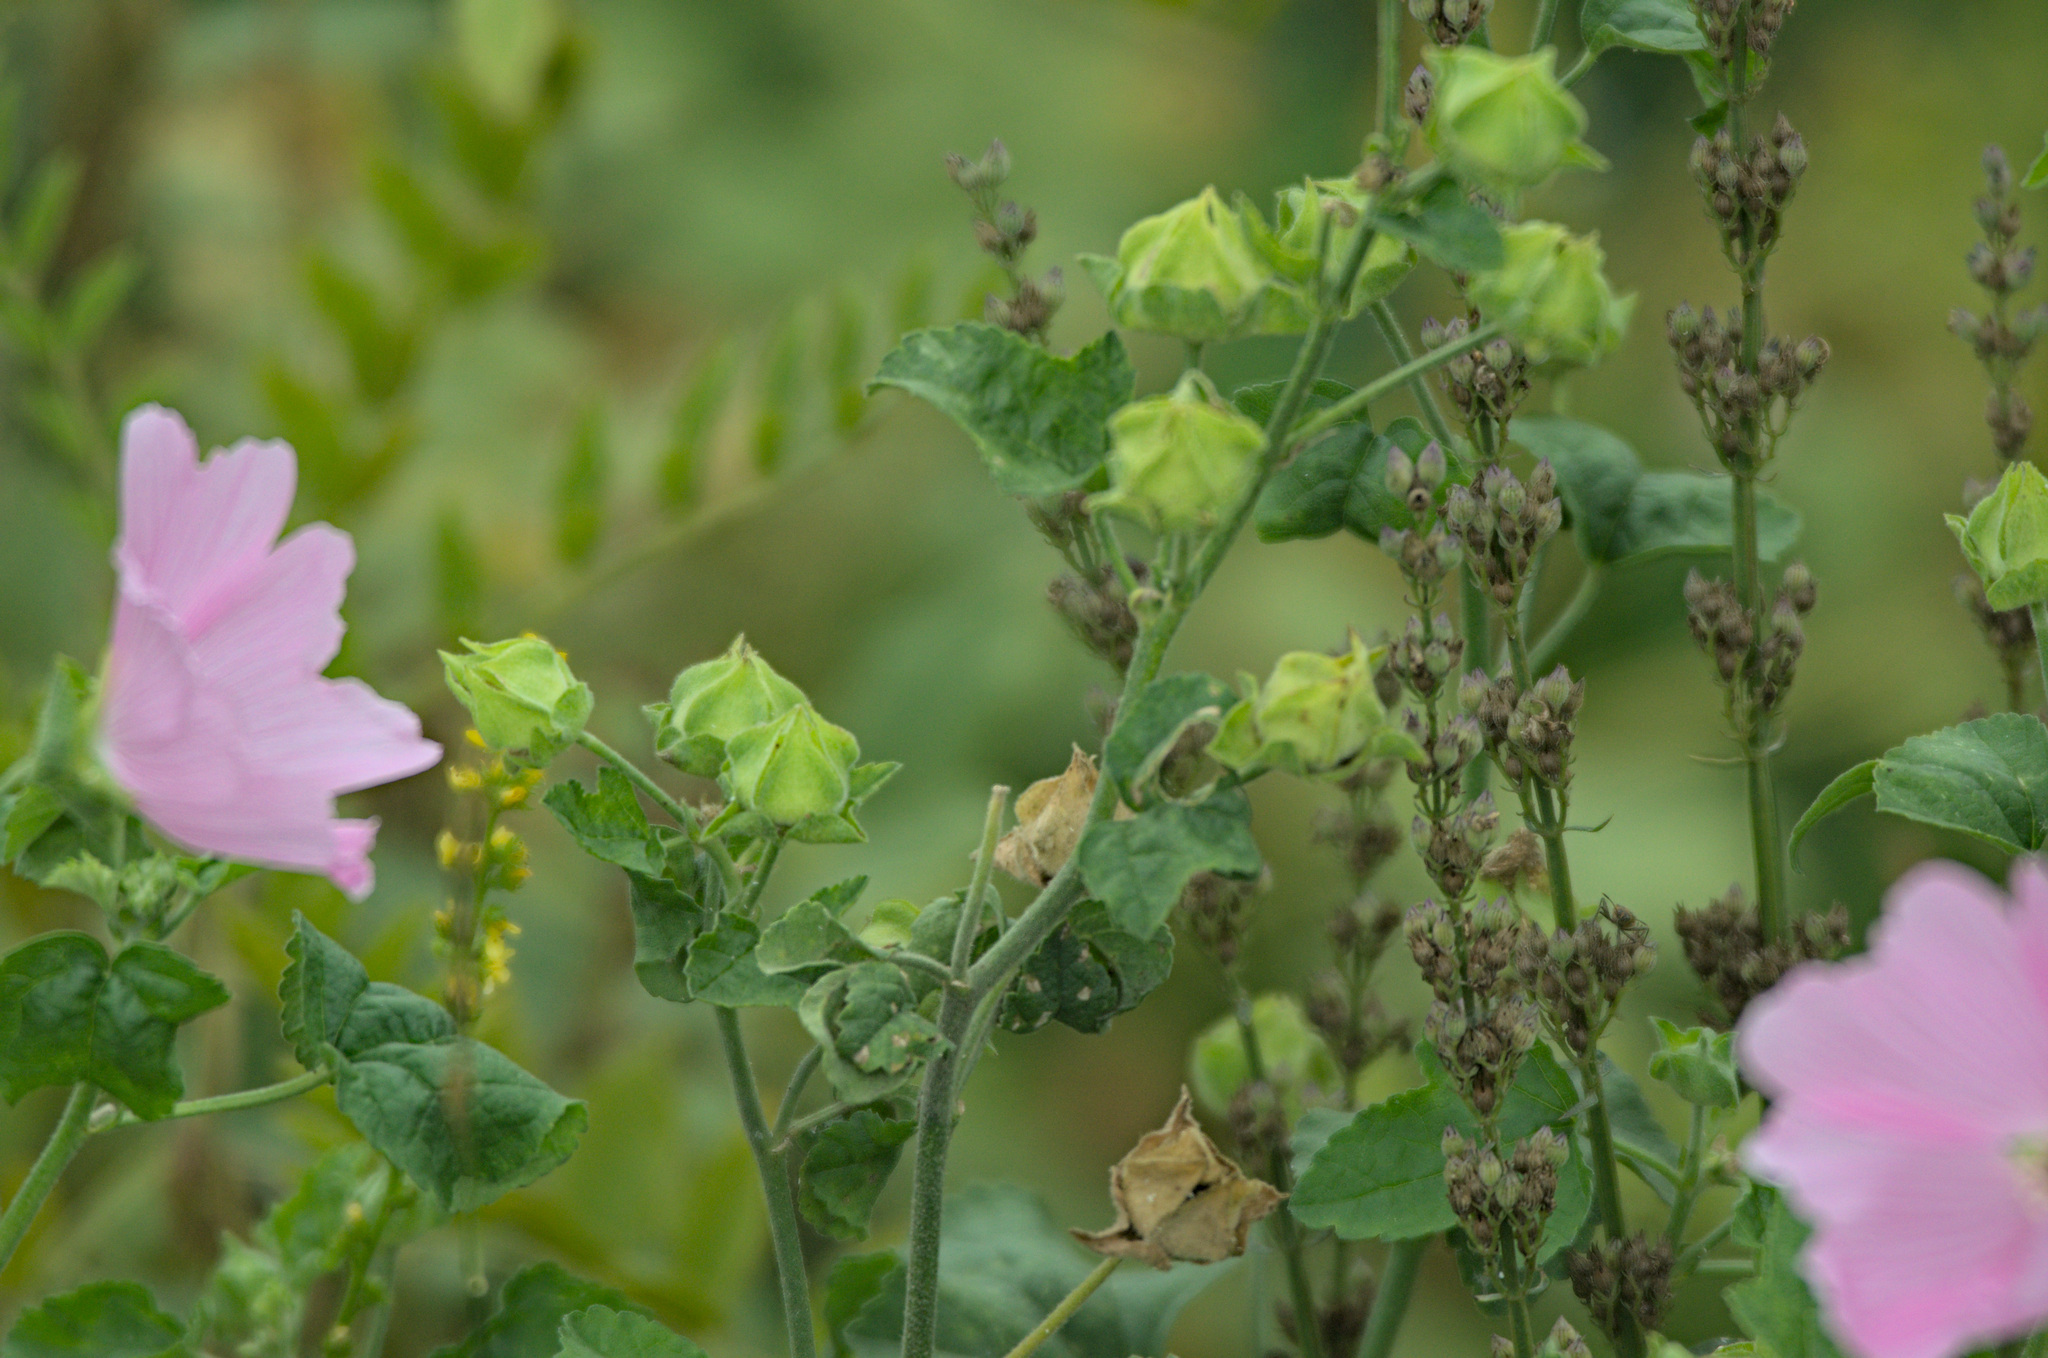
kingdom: Plantae
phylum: Tracheophyta
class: Magnoliopsida
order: Malvales
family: Malvaceae
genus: Malva
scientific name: Malva thuringiaca
